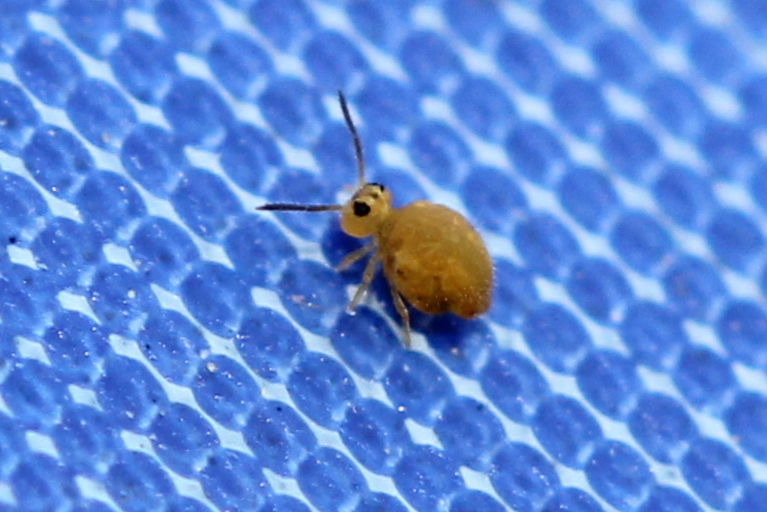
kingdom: Animalia
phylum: Arthropoda
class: Collembola
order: Symphypleona
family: Katiannidae
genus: Sminthurinus
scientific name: Sminthurinus henshawi
